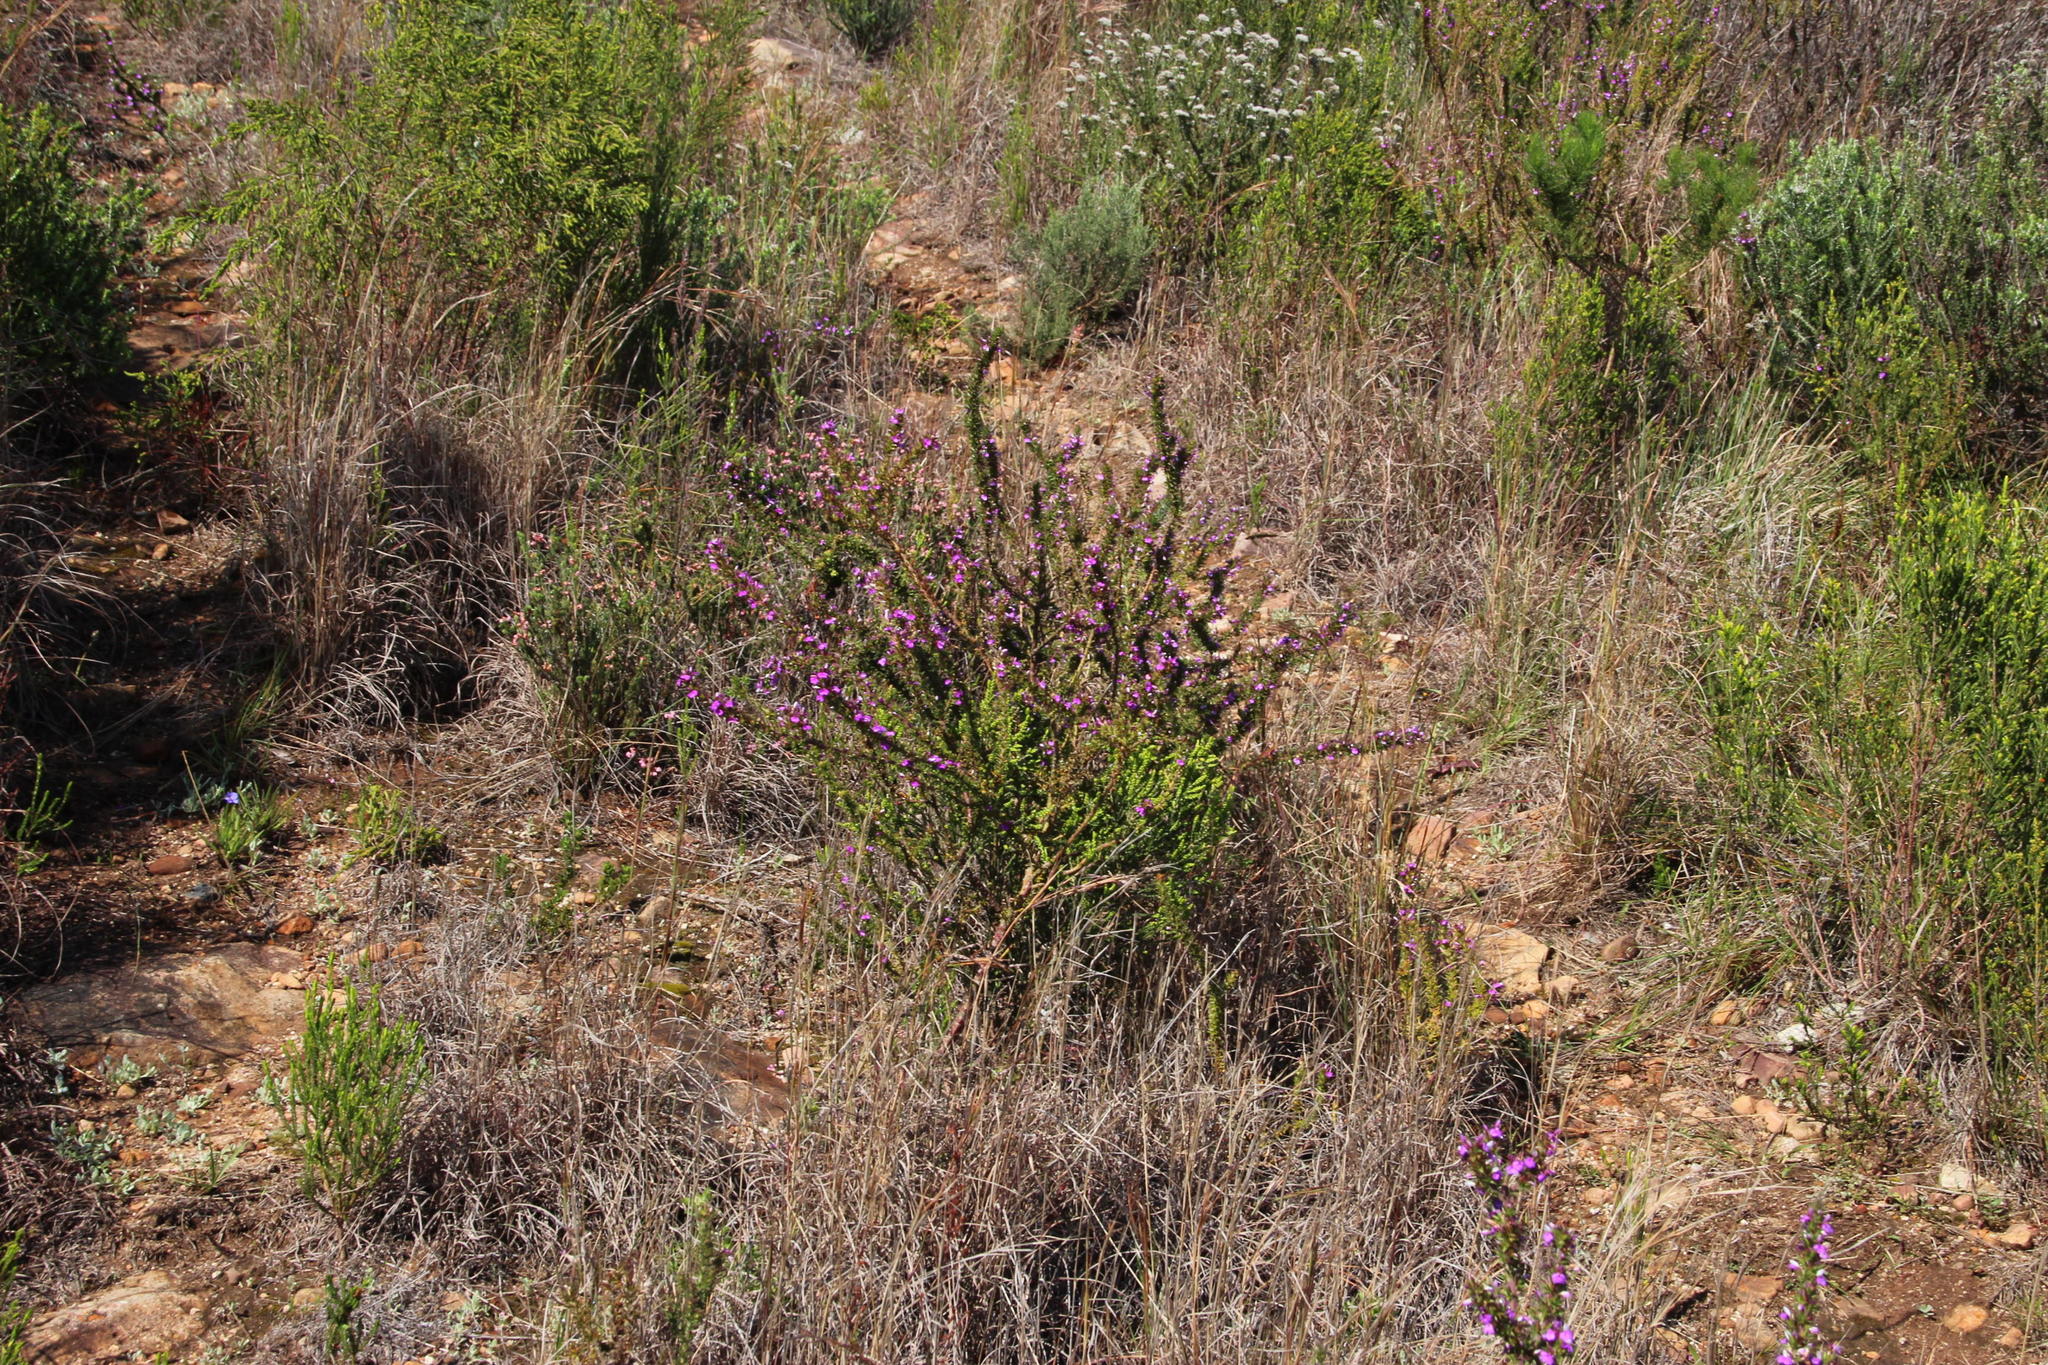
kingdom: Plantae
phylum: Tracheophyta
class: Magnoliopsida
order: Fabales
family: Polygalaceae
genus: Muraltia
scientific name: Muraltia heisteria
